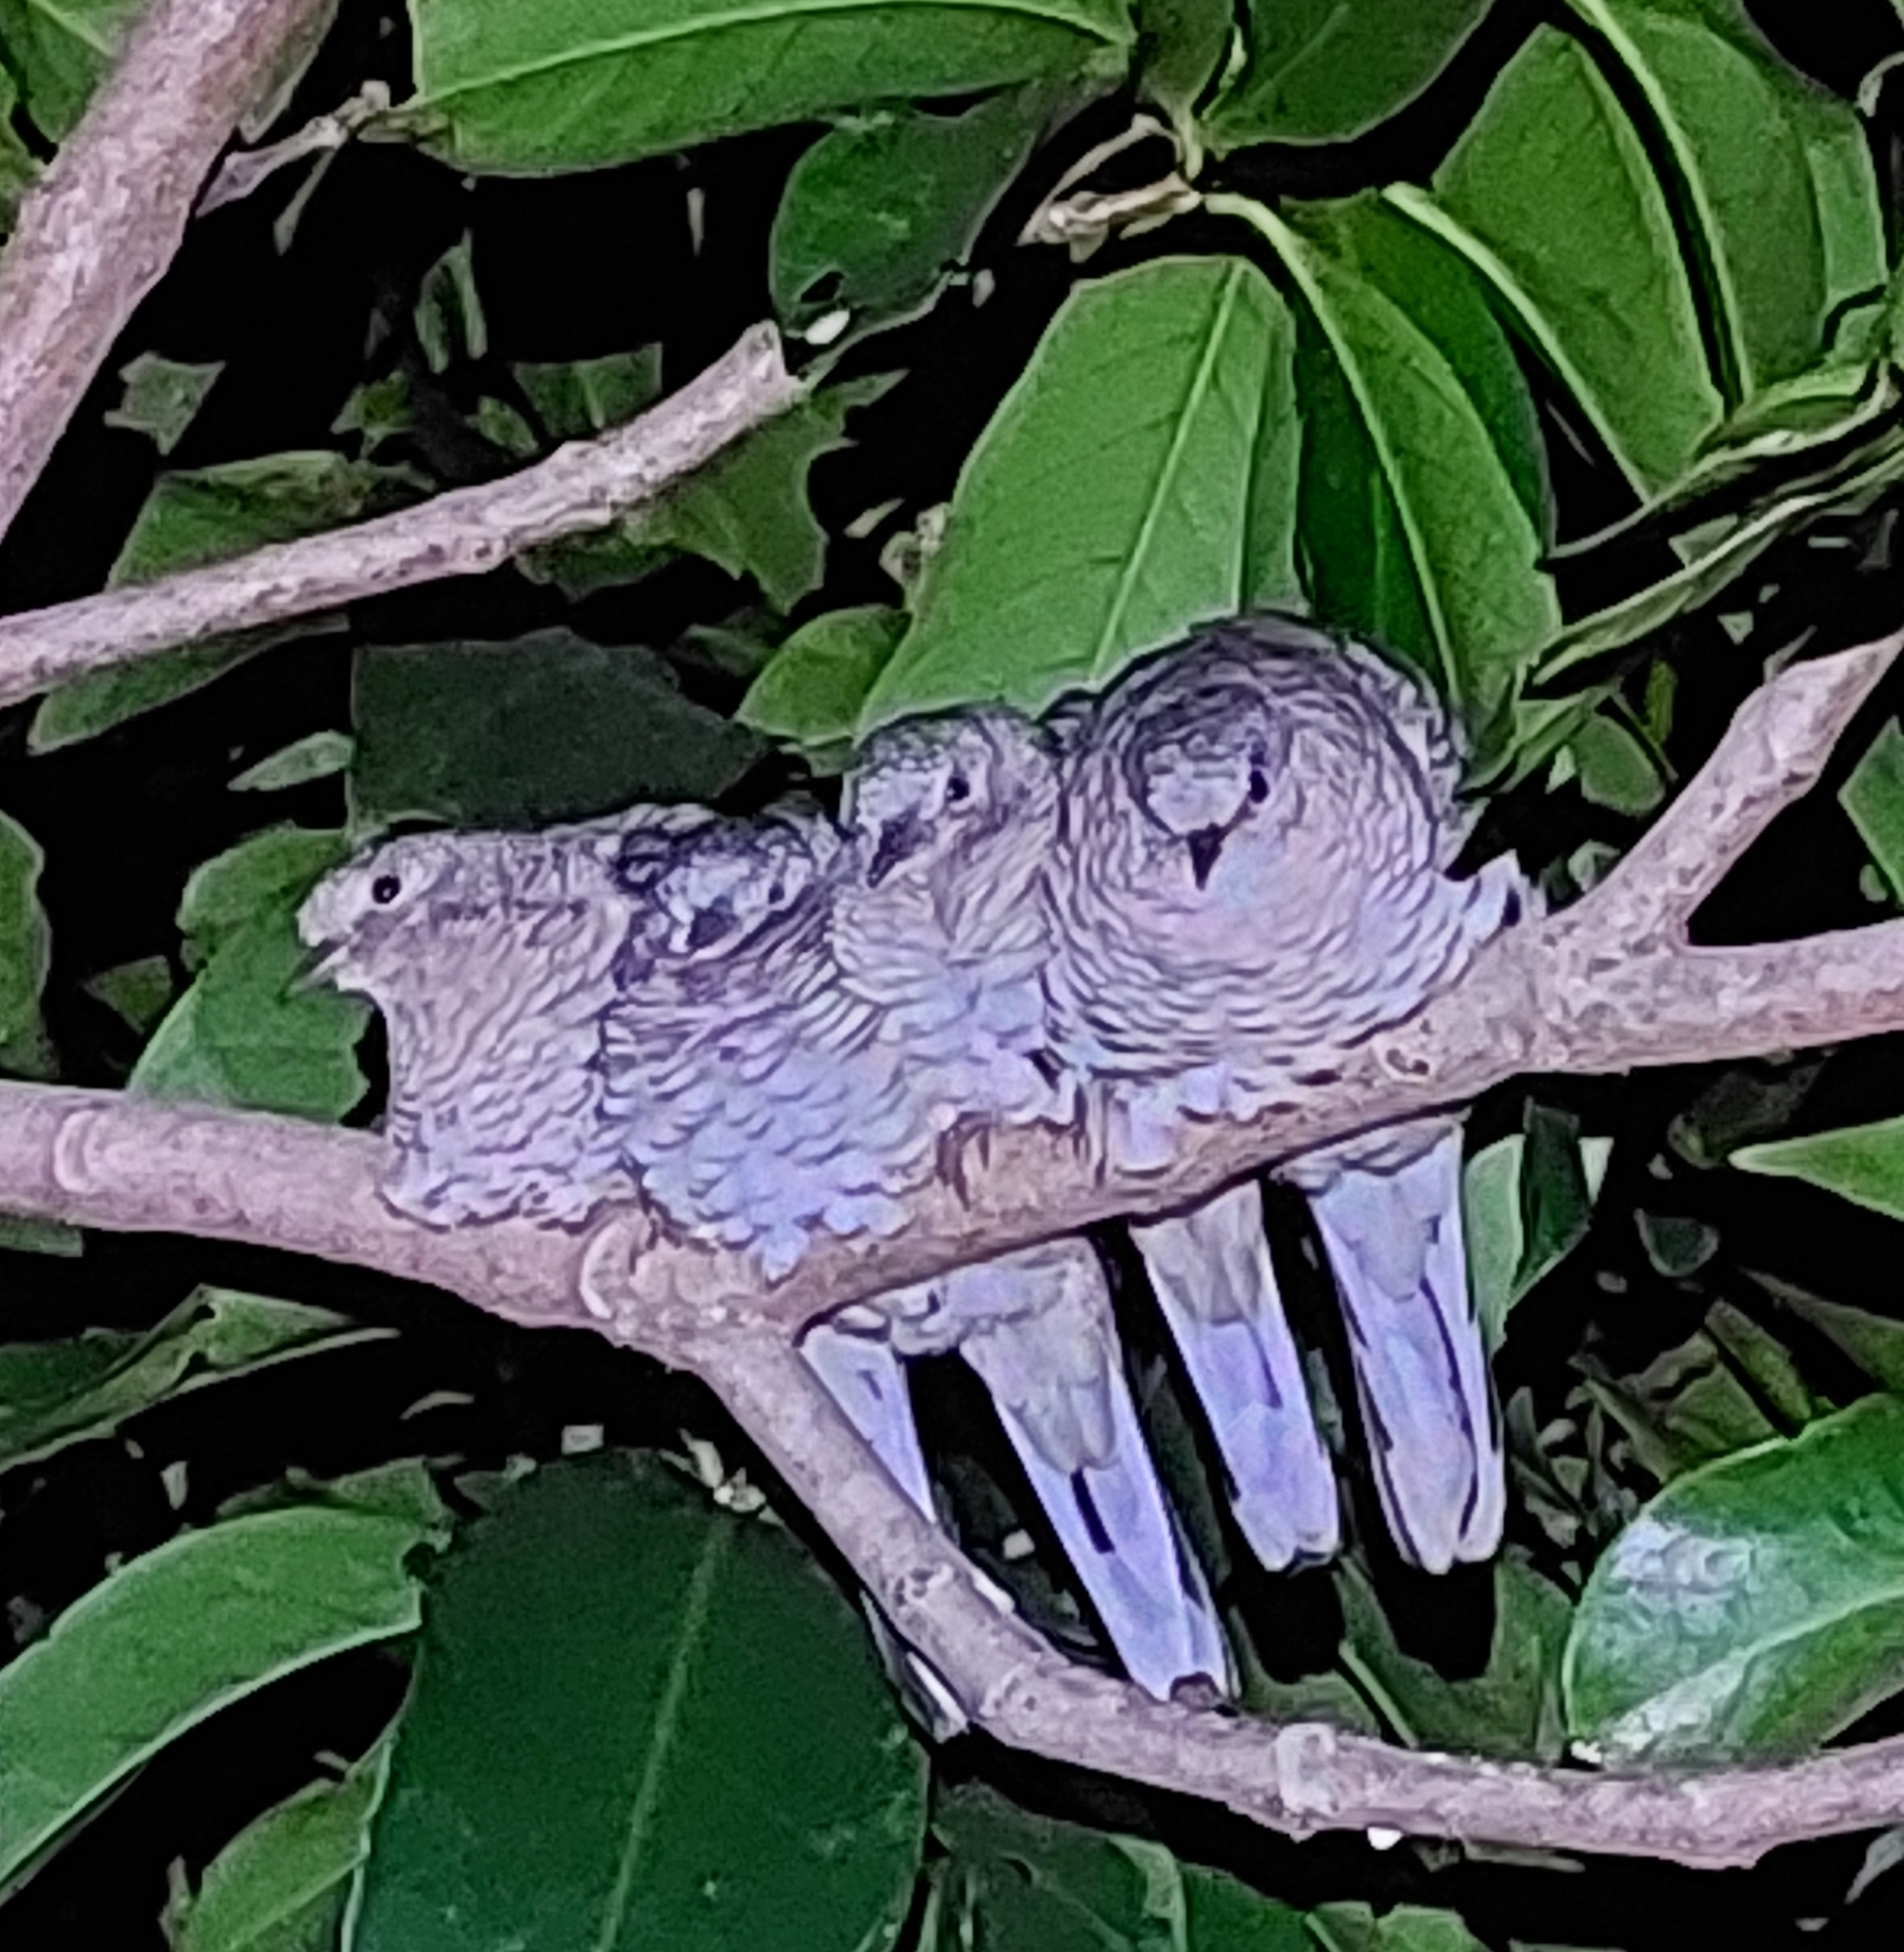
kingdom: Animalia
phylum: Chordata
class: Aves
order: Columbiformes
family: Columbidae
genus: Columbina
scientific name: Columbina squammata
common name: Scaled dove
